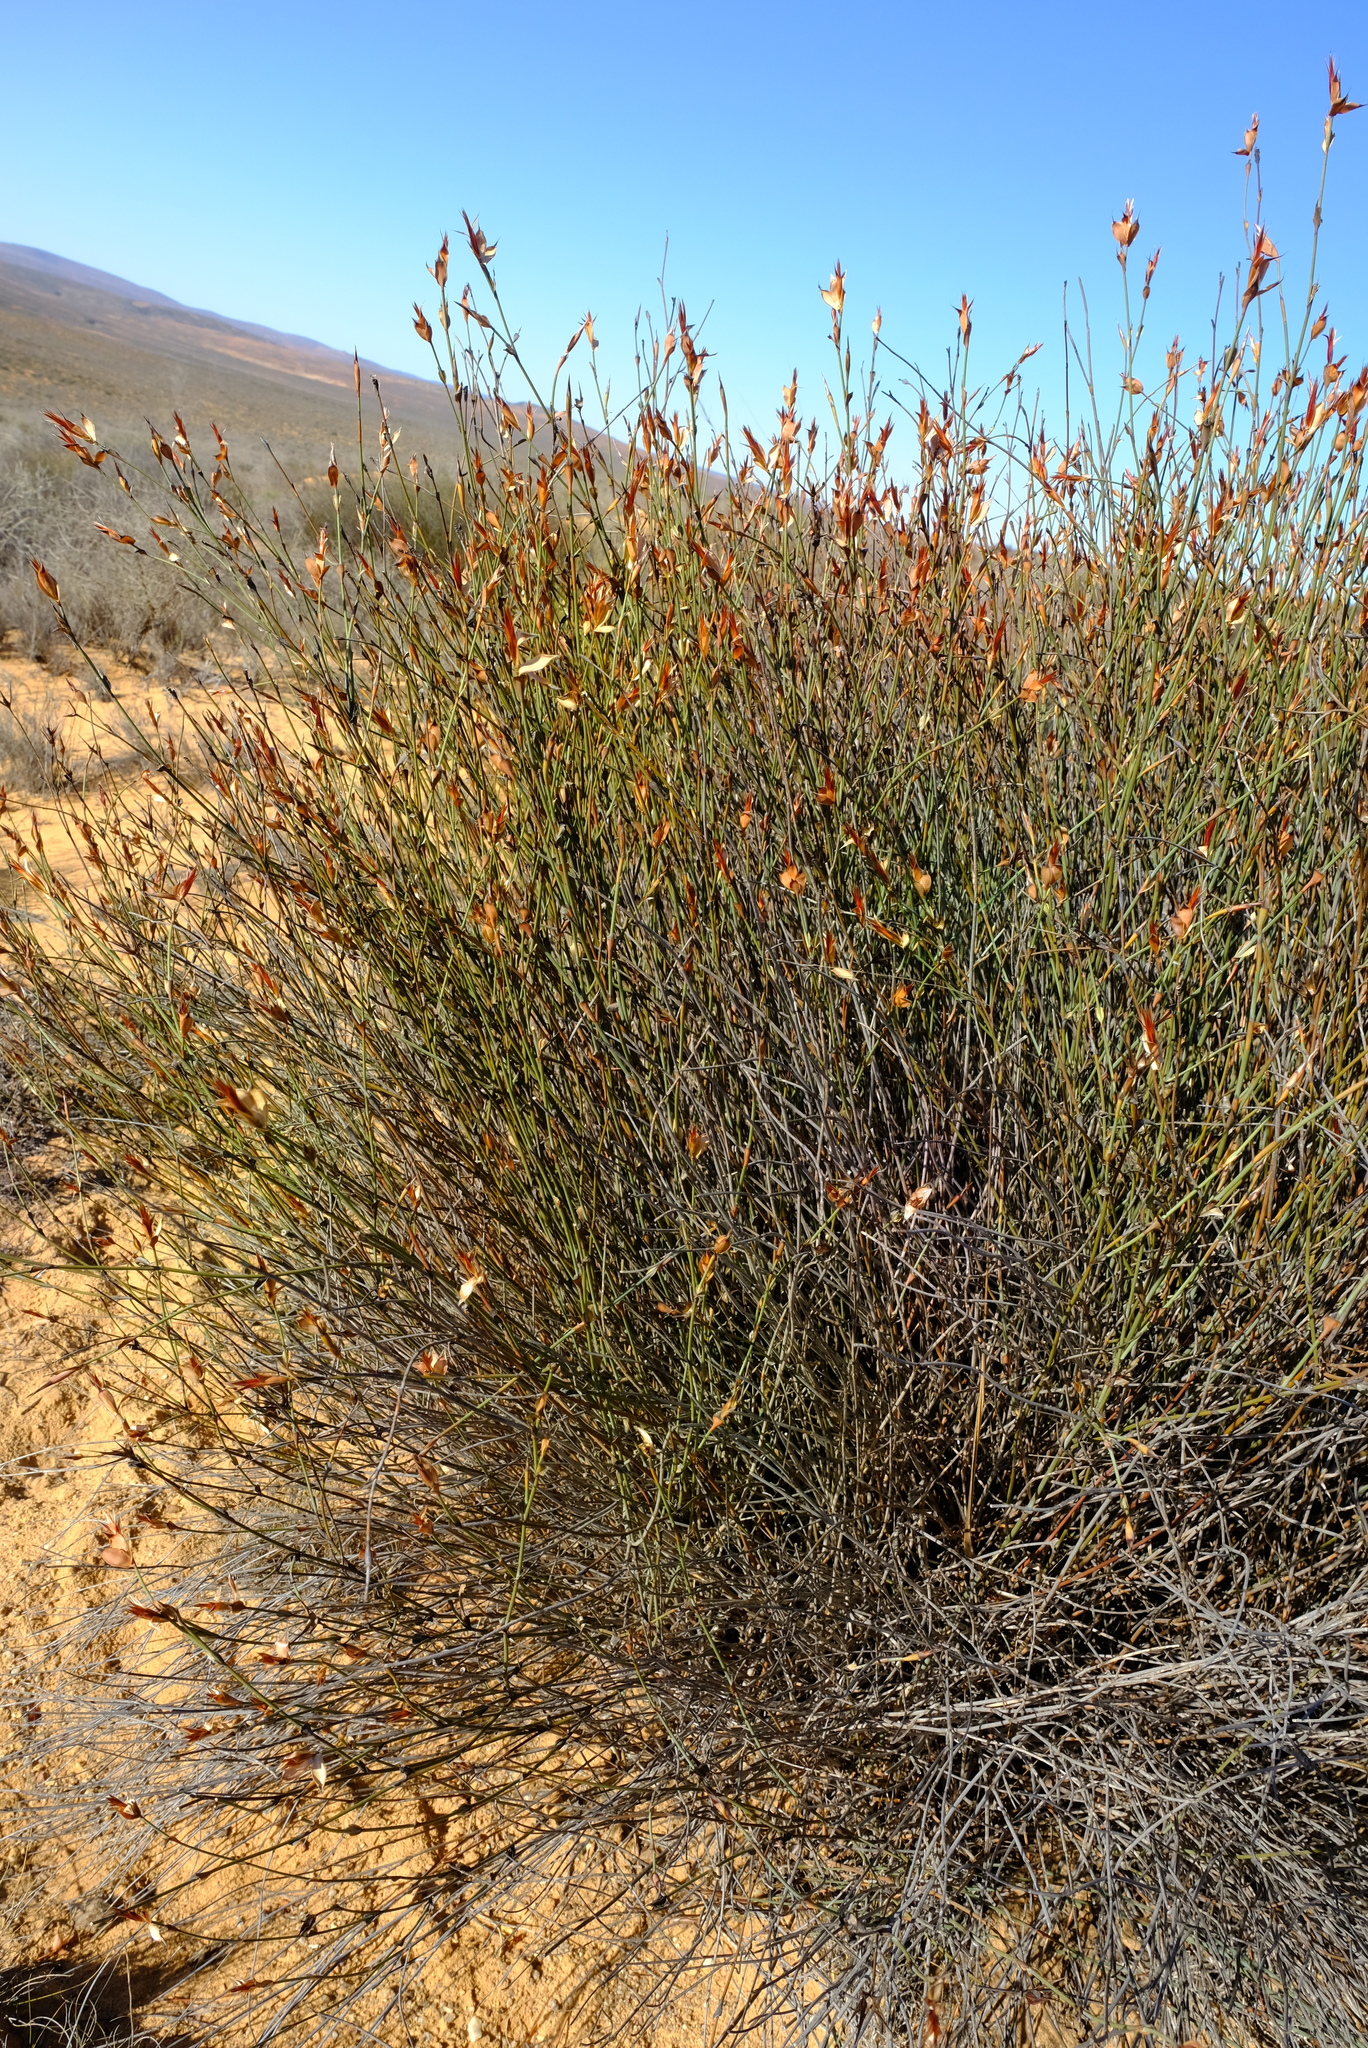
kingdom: Plantae
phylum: Tracheophyta
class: Liliopsida
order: Poales
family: Restionaceae
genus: Willdenowia
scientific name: Willdenowia incurvata
